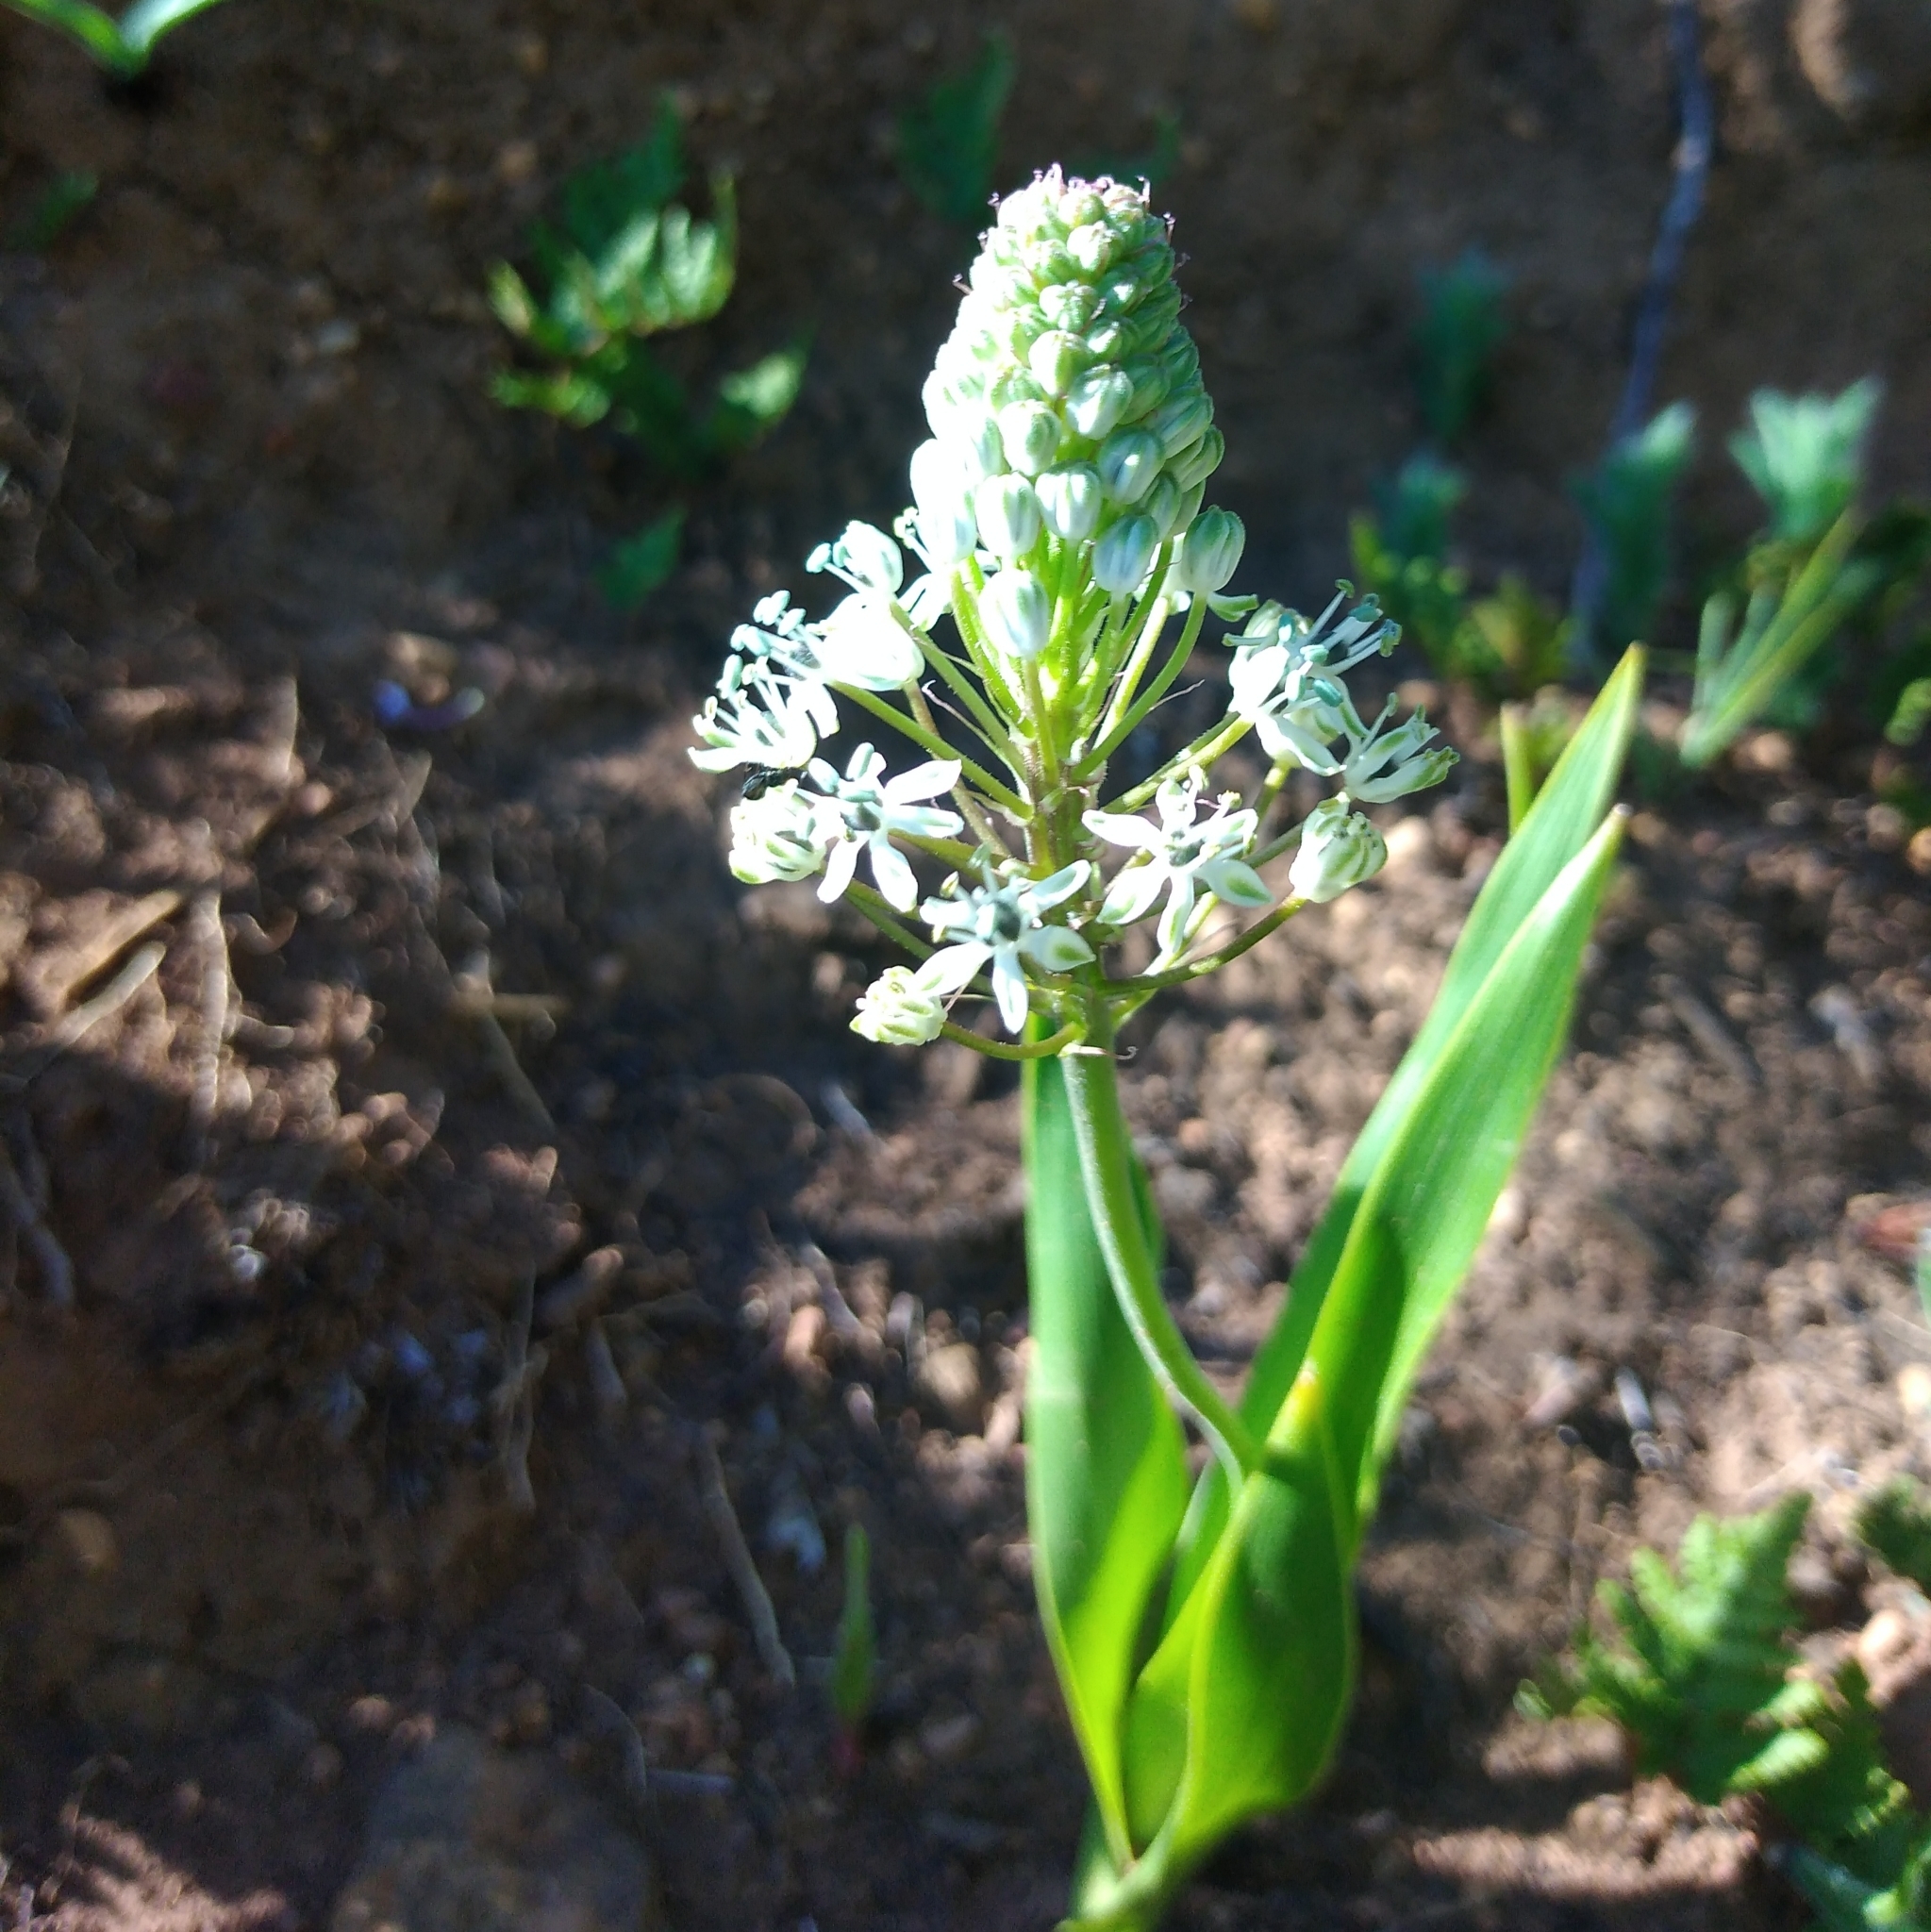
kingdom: Plantae
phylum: Tracheophyta
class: Liliopsida
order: Asparagales
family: Asparagaceae
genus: Schizocarphus
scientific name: Schizocarphus nervosus
